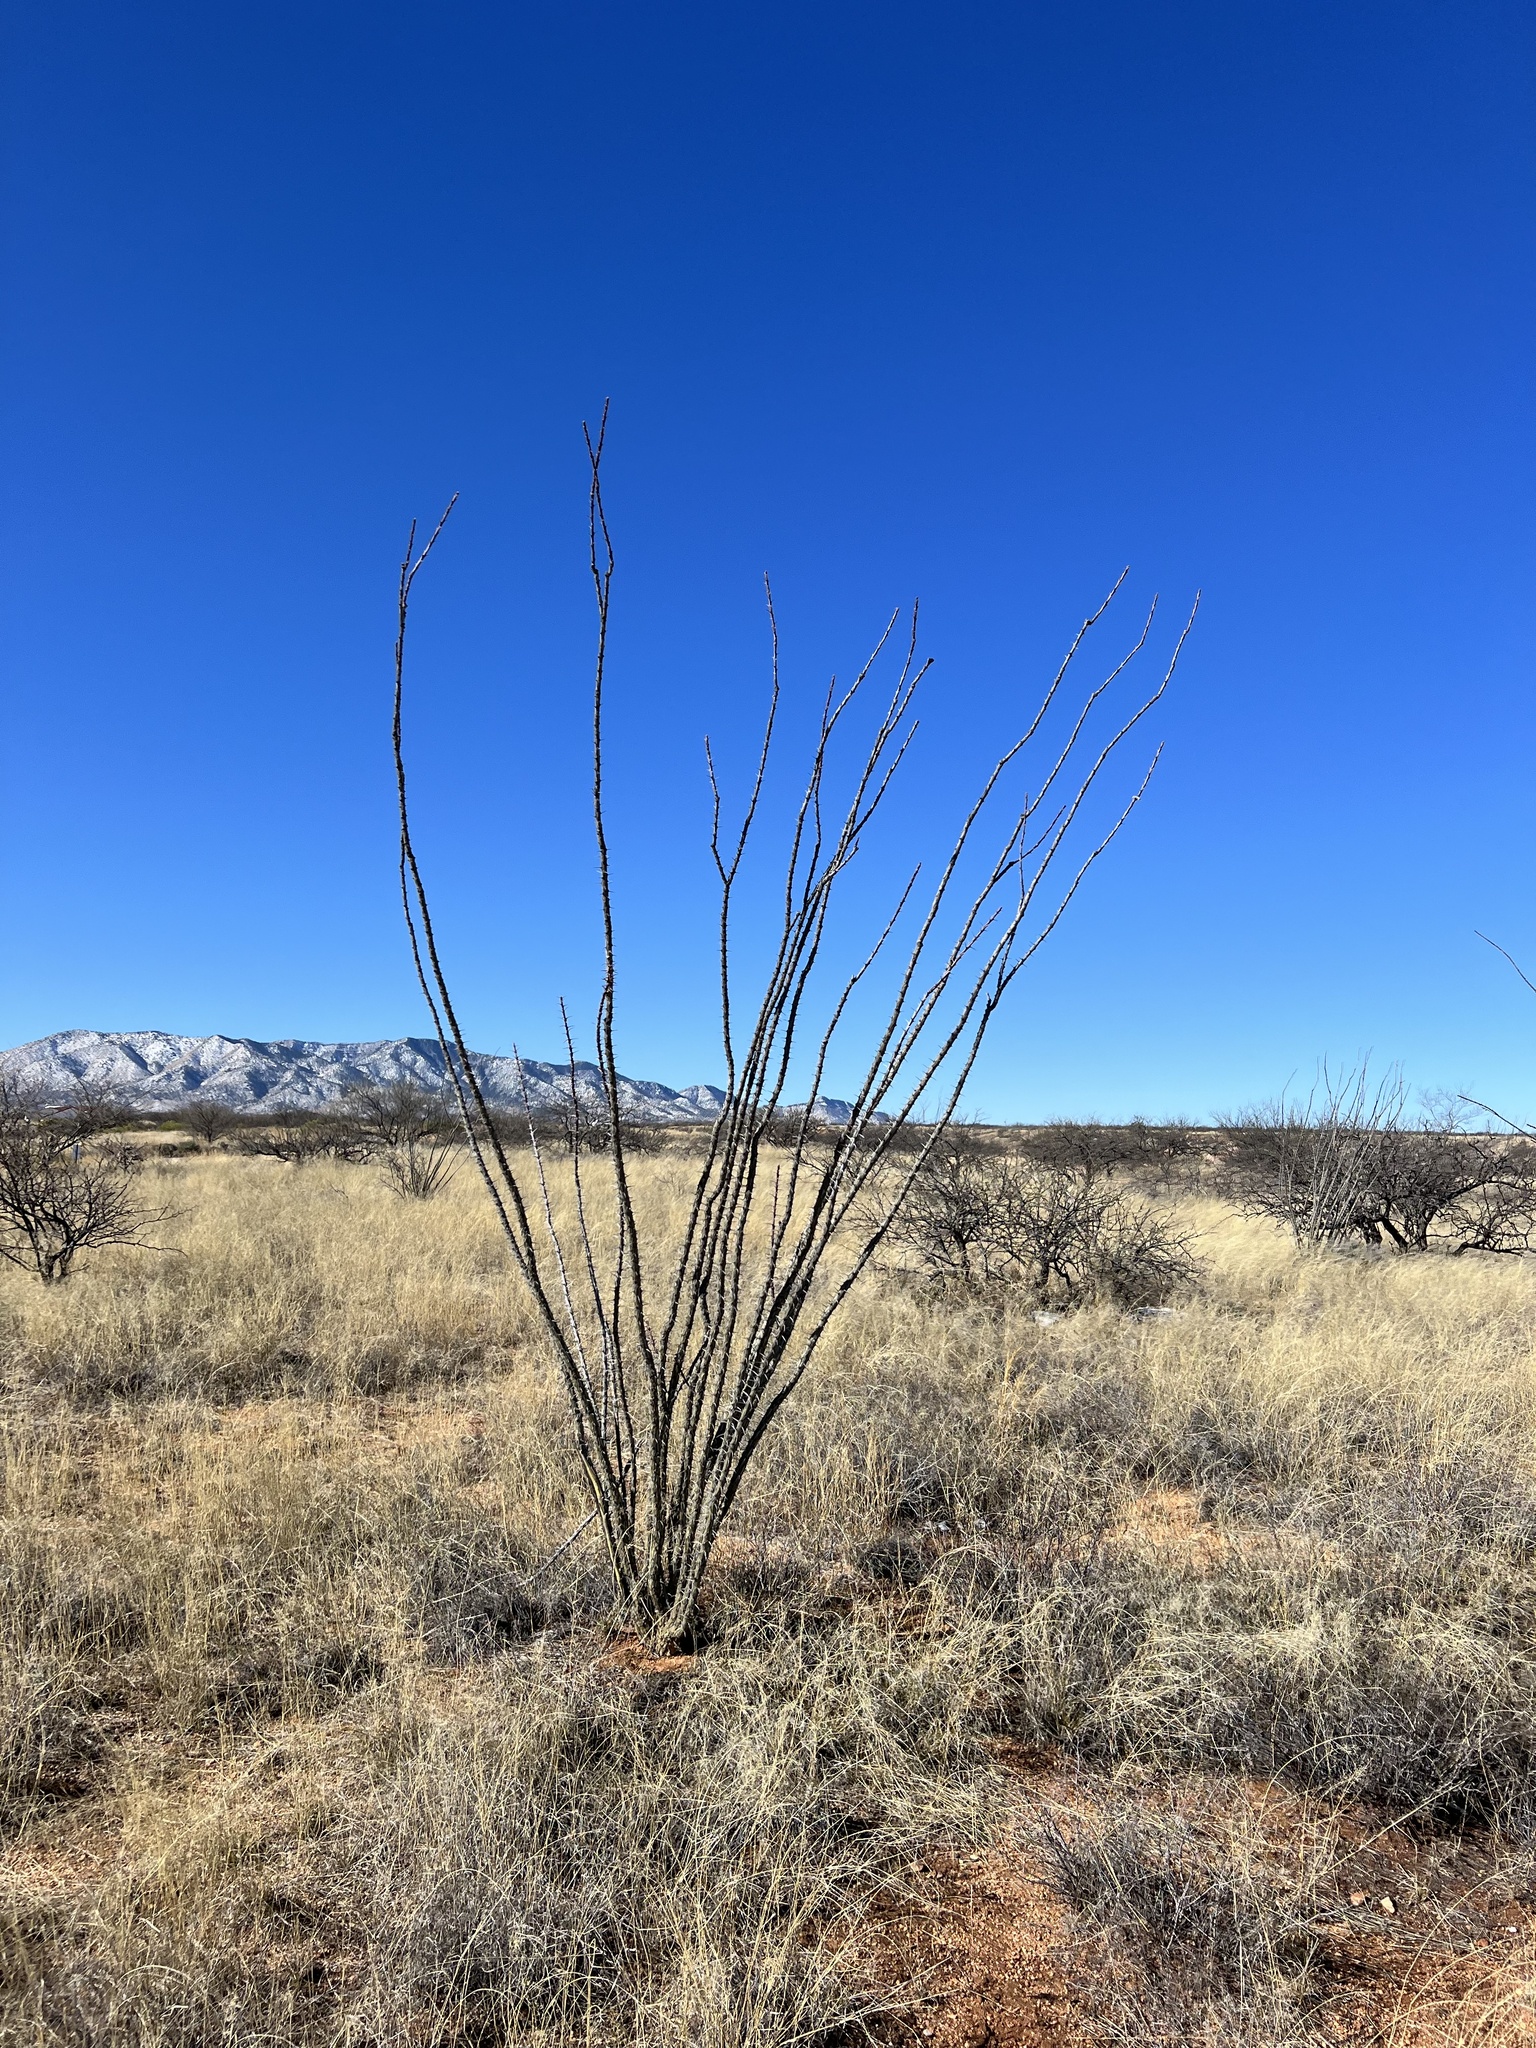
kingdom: Plantae
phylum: Tracheophyta
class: Magnoliopsida
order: Ericales
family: Fouquieriaceae
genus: Fouquieria
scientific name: Fouquieria splendens
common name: Vine-cactus
